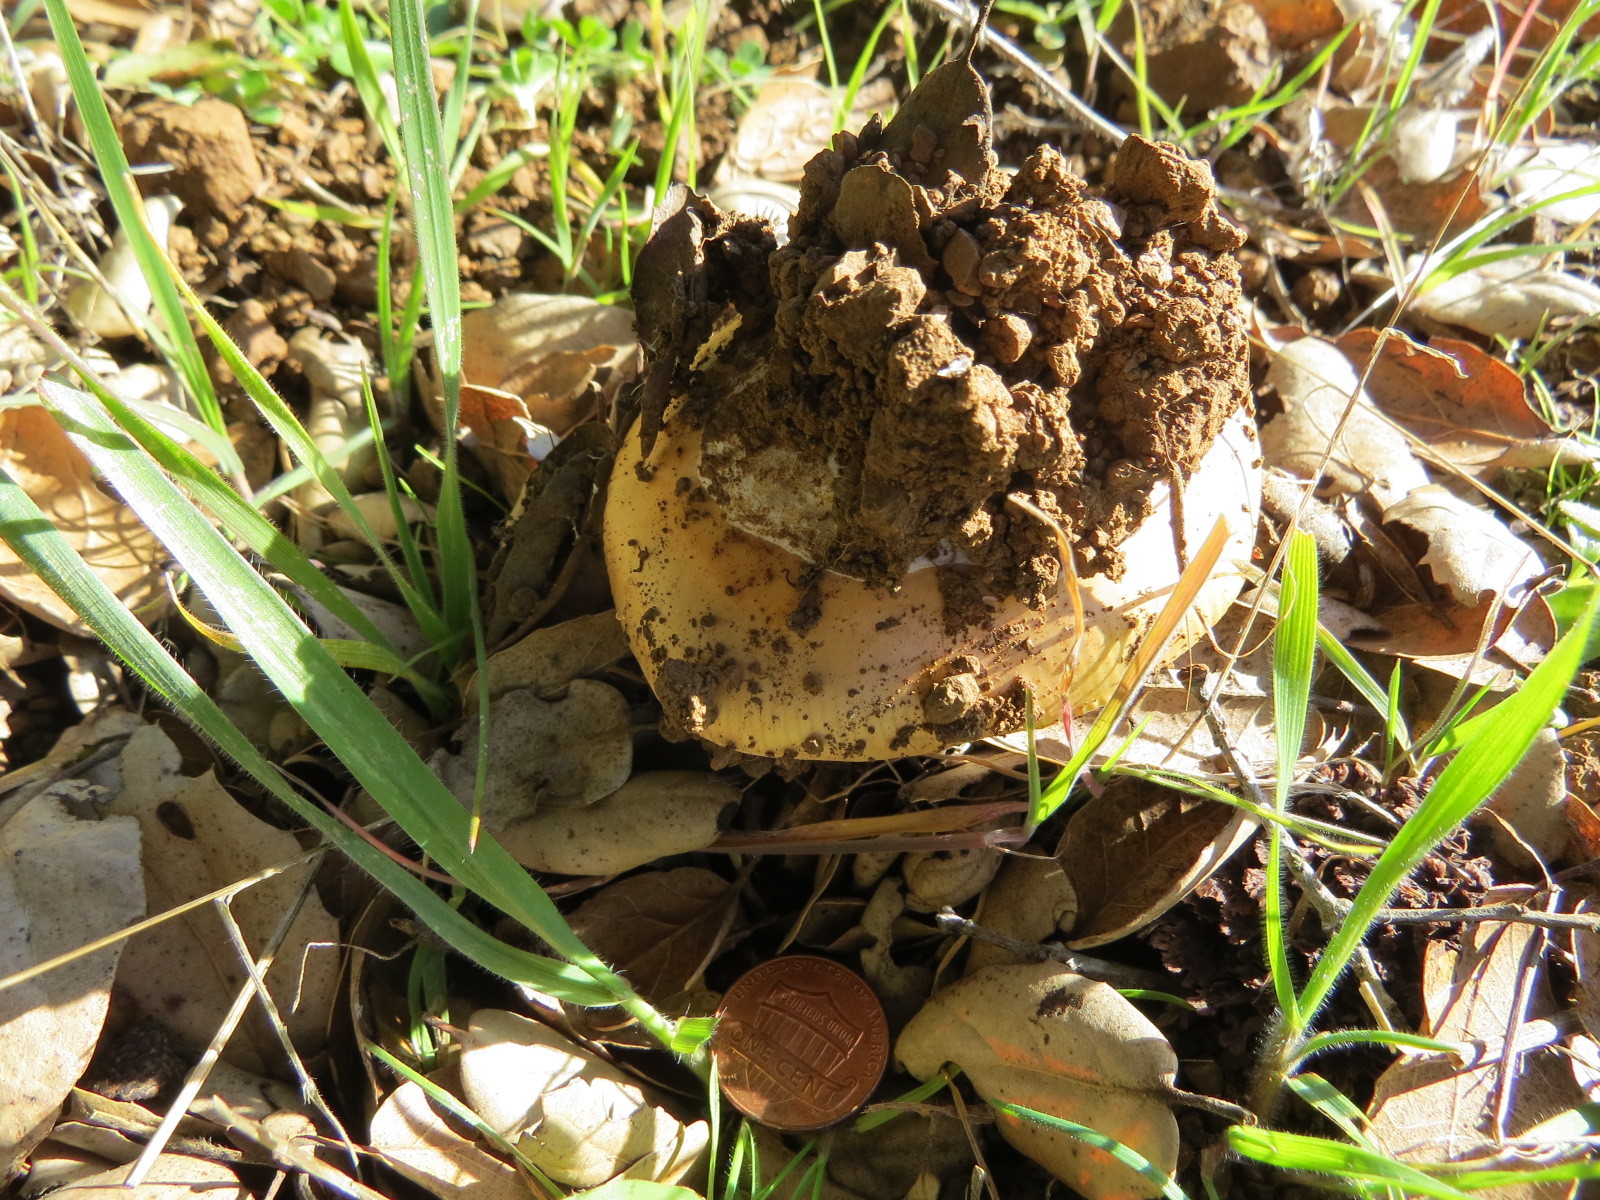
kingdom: Fungi
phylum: Basidiomycota
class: Agaricomycetes
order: Agaricales
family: Amanitaceae
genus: Amanita
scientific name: Amanita velosa
